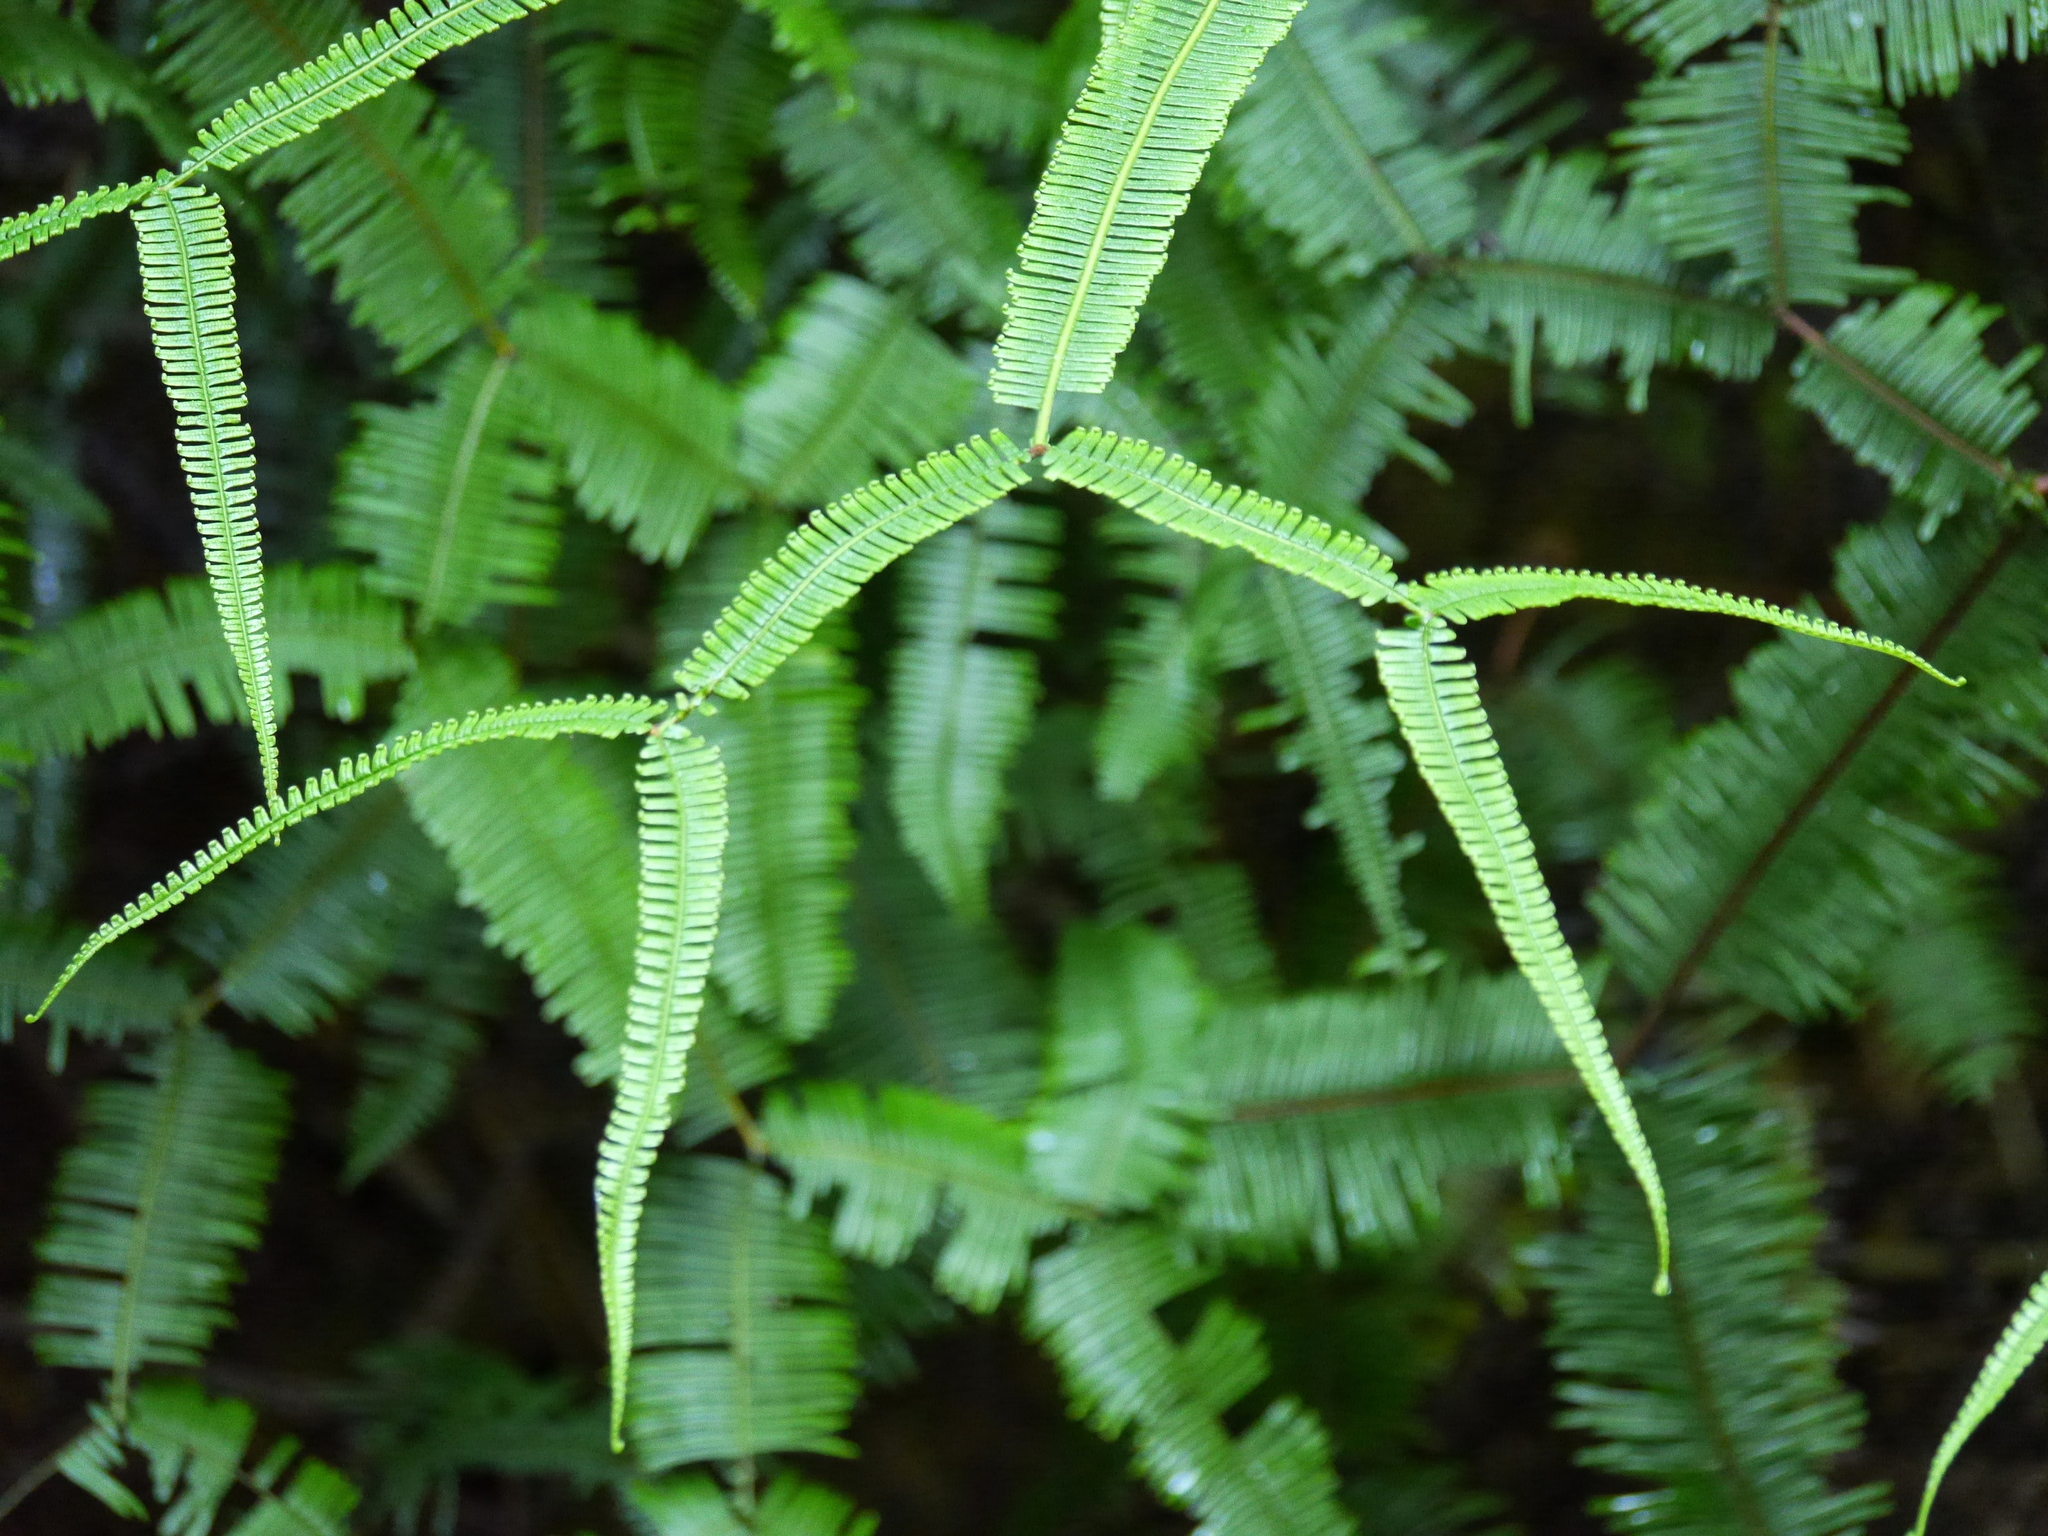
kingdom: Plantae
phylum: Tracheophyta
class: Polypodiopsida
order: Gleicheniales
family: Gleicheniaceae
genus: Sticherus
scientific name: Sticherus truncatus
